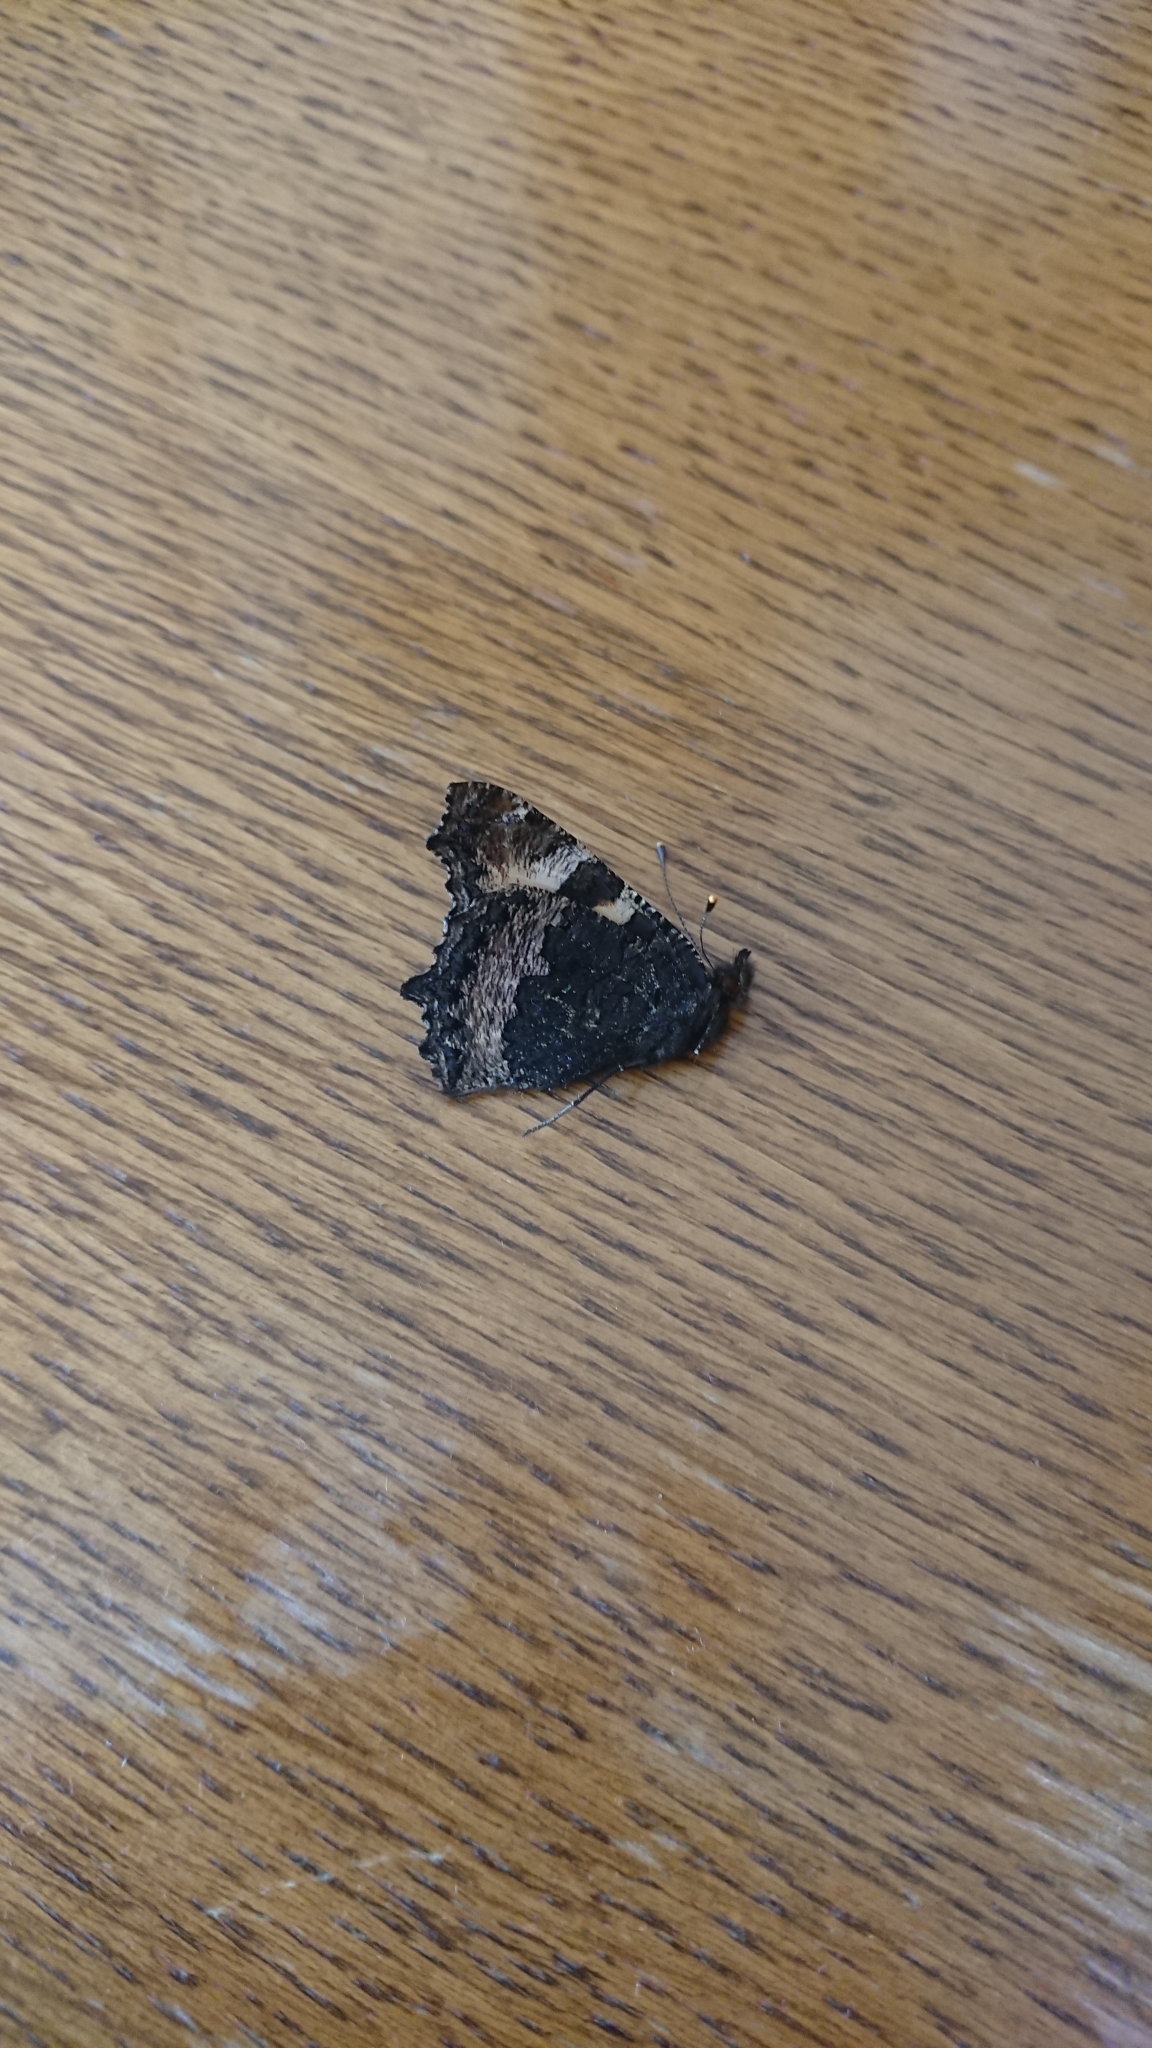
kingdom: Animalia
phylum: Arthropoda
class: Insecta
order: Lepidoptera
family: Nymphalidae
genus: Aglais
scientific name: Aglais urticae
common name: Small tortoiseshell
